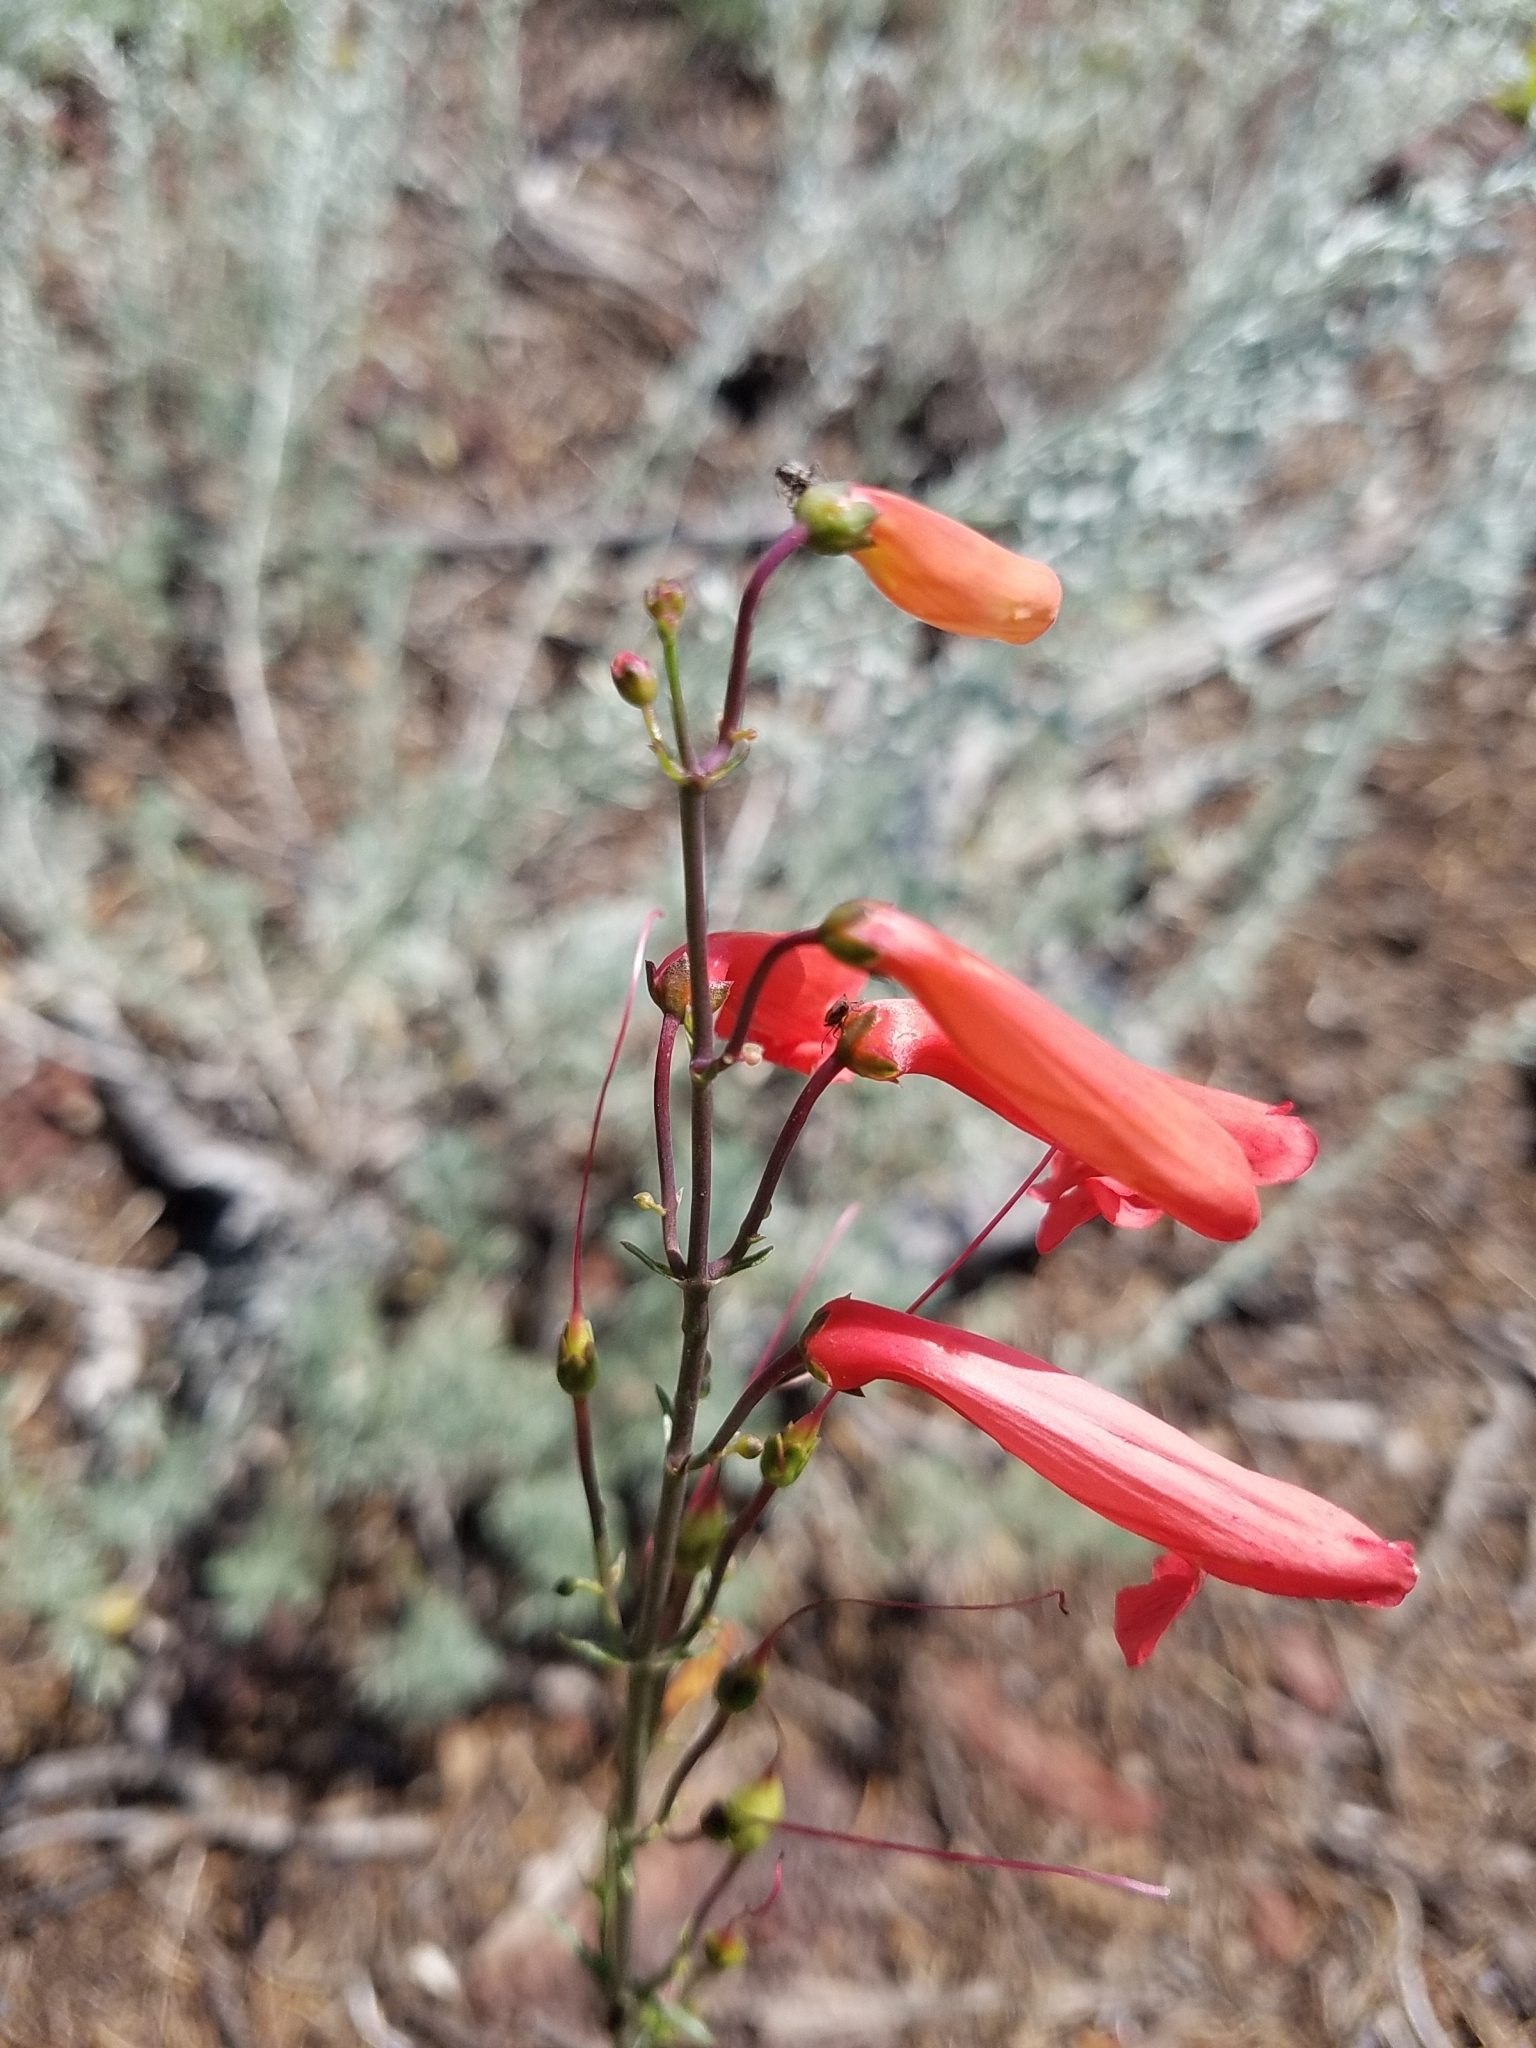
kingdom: Plantae
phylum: Tracheophyta
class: Magnoliopsida
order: Lamiales
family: Plantaginaceae
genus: Penstemon
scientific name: Penstemon barbatus
